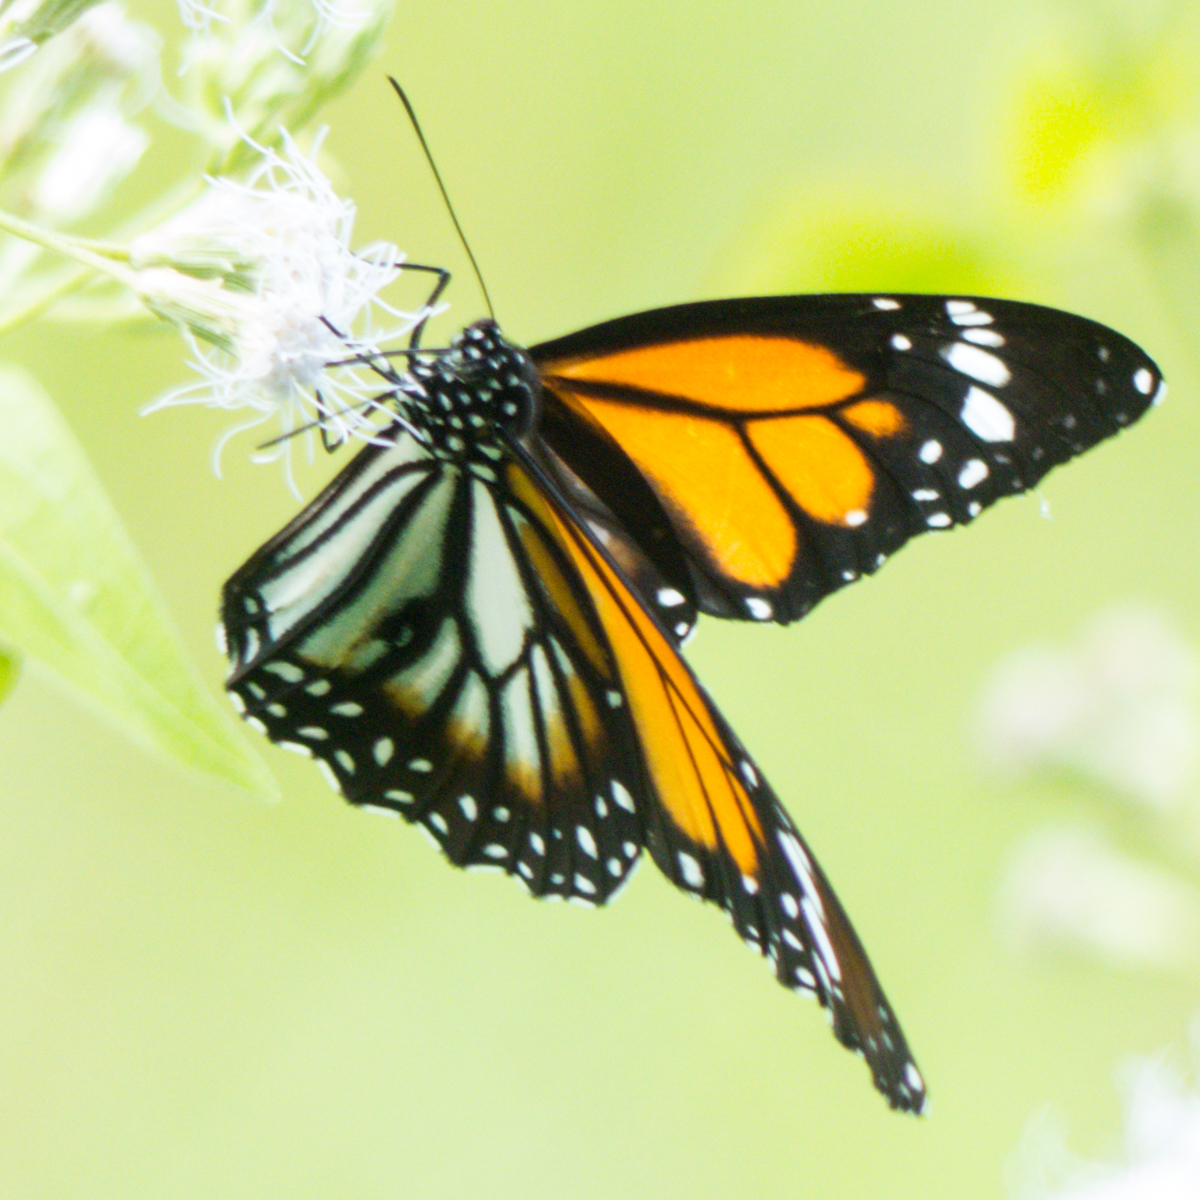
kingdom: Animalia
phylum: Arthropoda
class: Insecta
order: Lepidoptera
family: Nymphalidae
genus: Danaus
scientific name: Danaus melanippus
